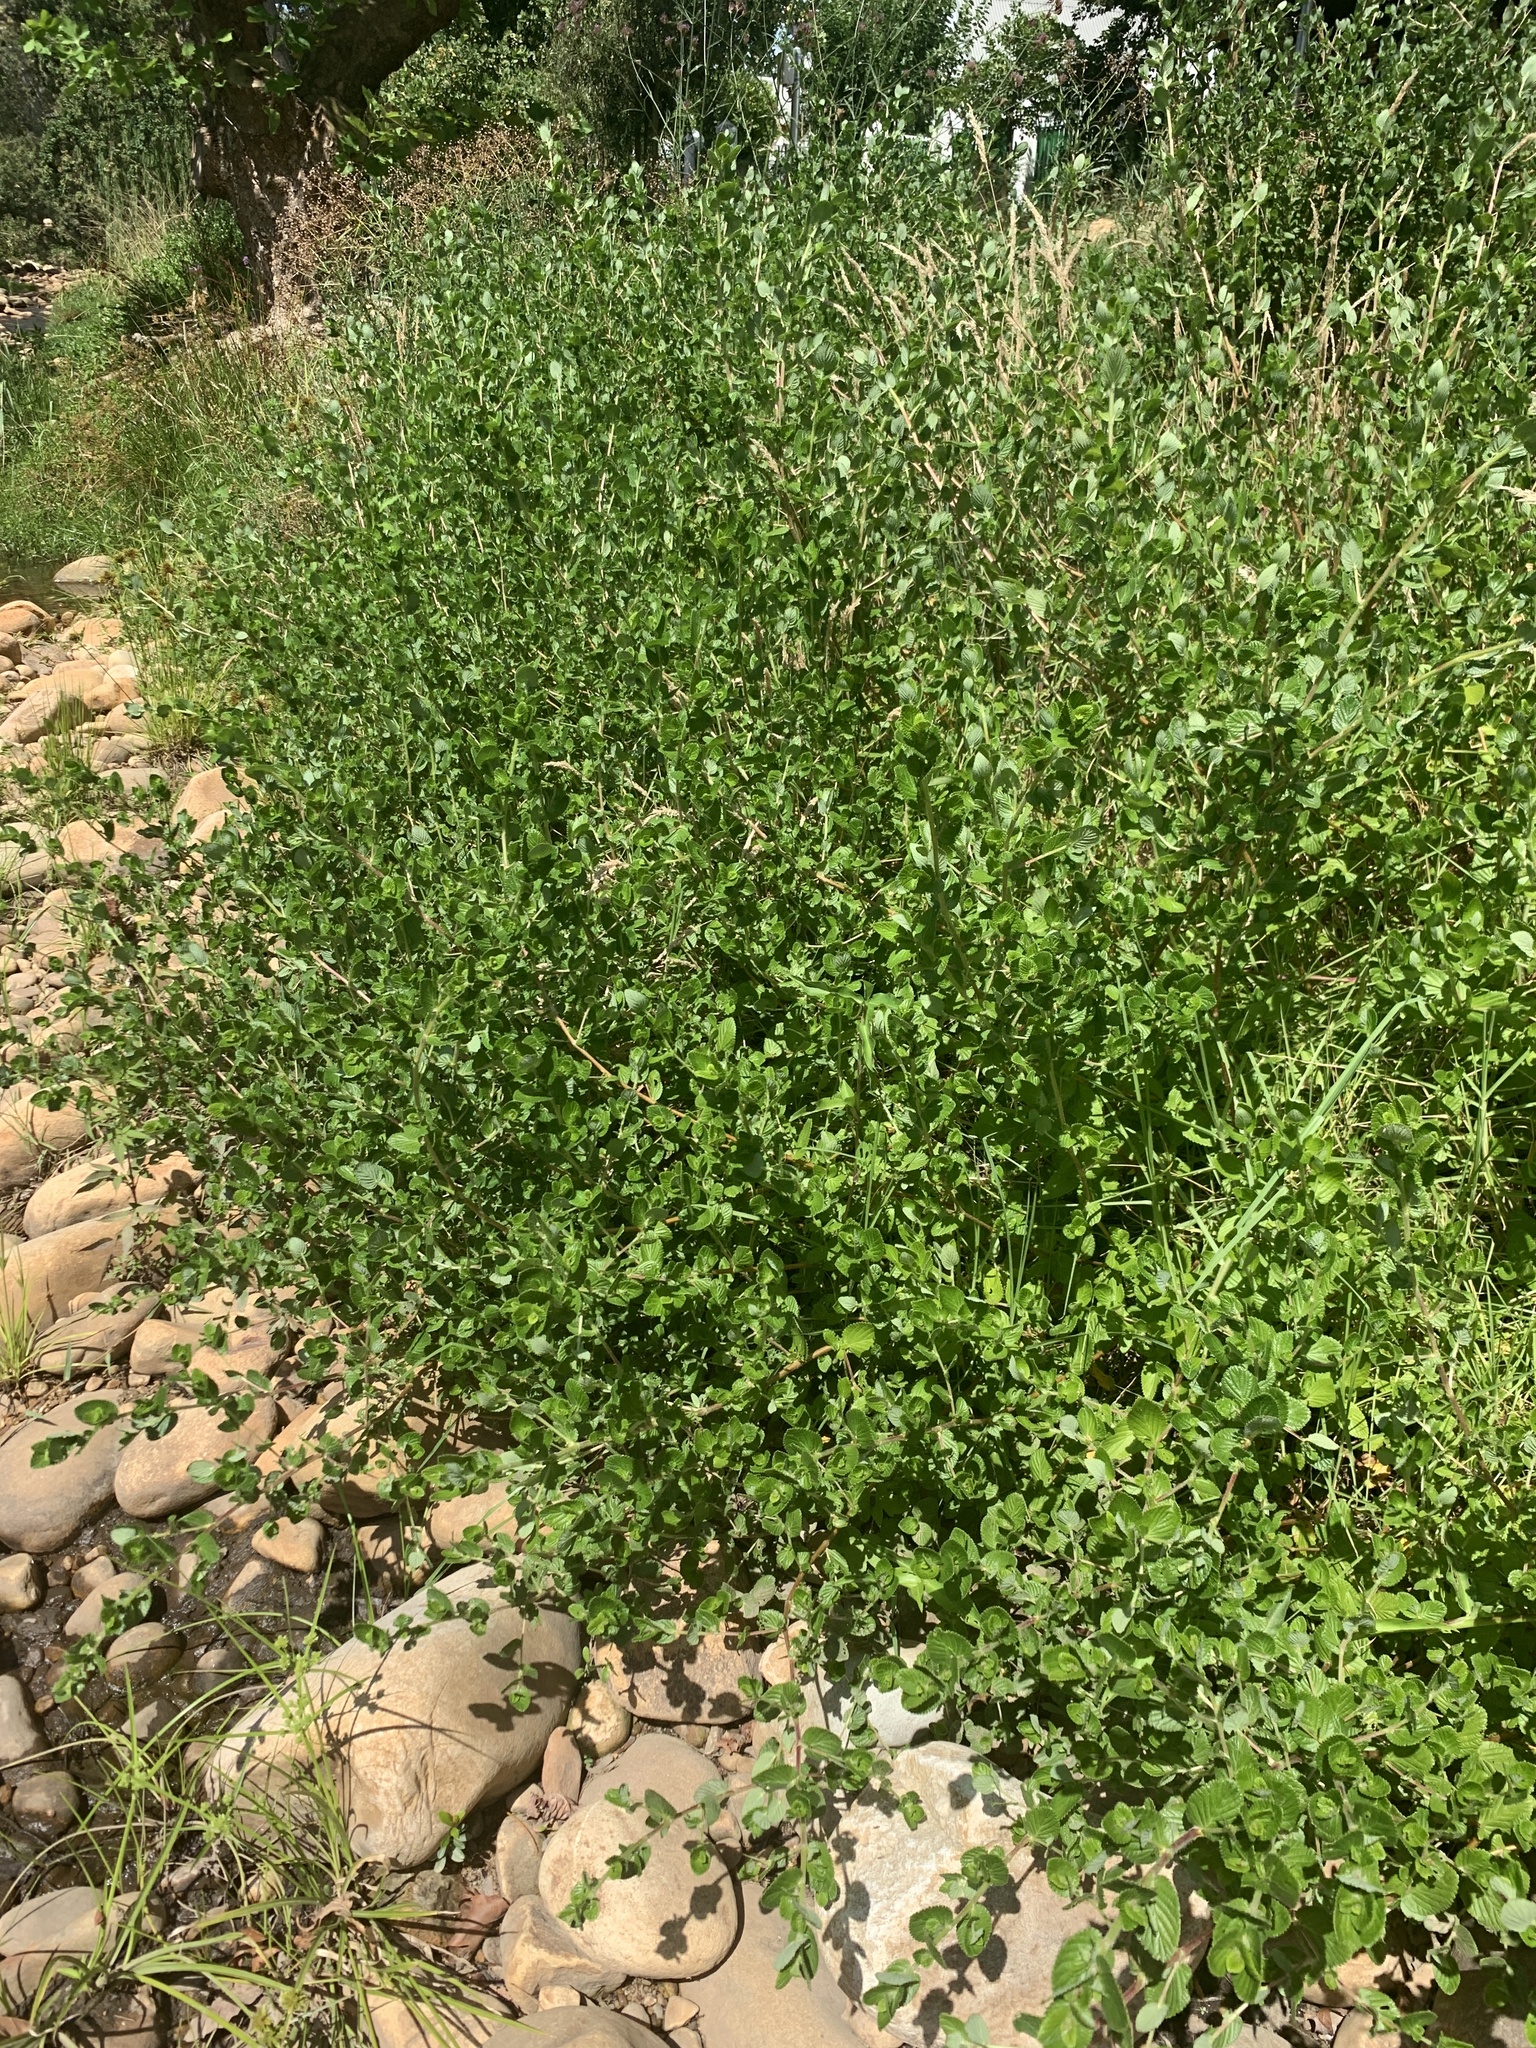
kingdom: Plantae
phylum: Tracheophyta
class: Magnoliopsida
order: Rosales
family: Rosaceae
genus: Cliffortia
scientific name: Cliffortia odorata
